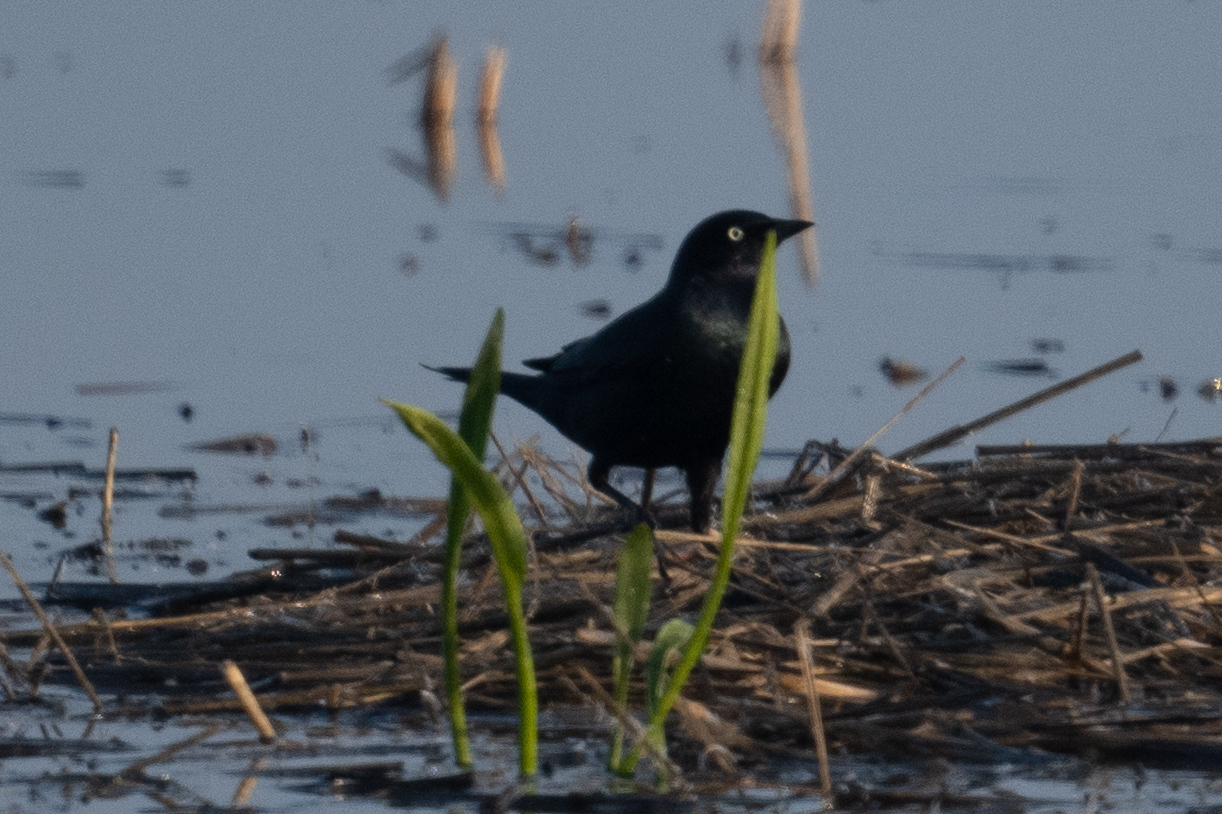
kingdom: Animalia
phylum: Chordata
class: Aves
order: Passeriformes
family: Icteridae
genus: Euphagus
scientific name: Euphagus cyanocephalus
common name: Brewer's blackbird
